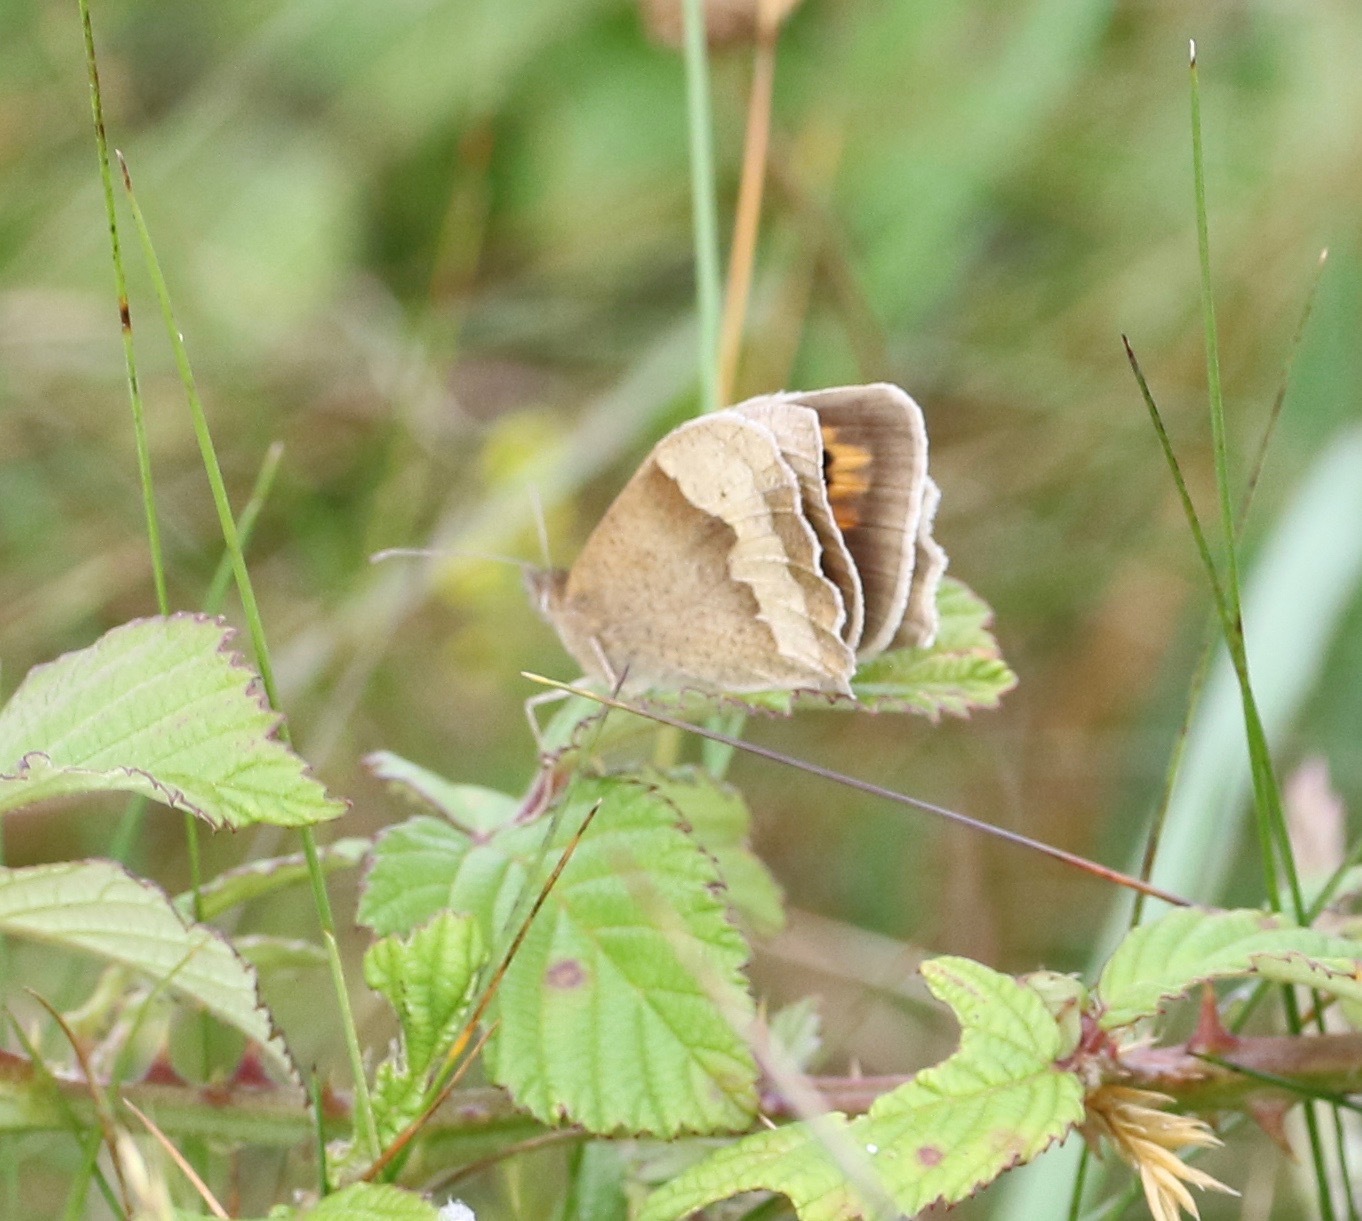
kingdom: Animalia
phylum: Arthropoda
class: Insecta
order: Lepidoptera
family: Nymphalidae
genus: Maniola
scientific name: Maniola jurtina
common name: Meadow brown
